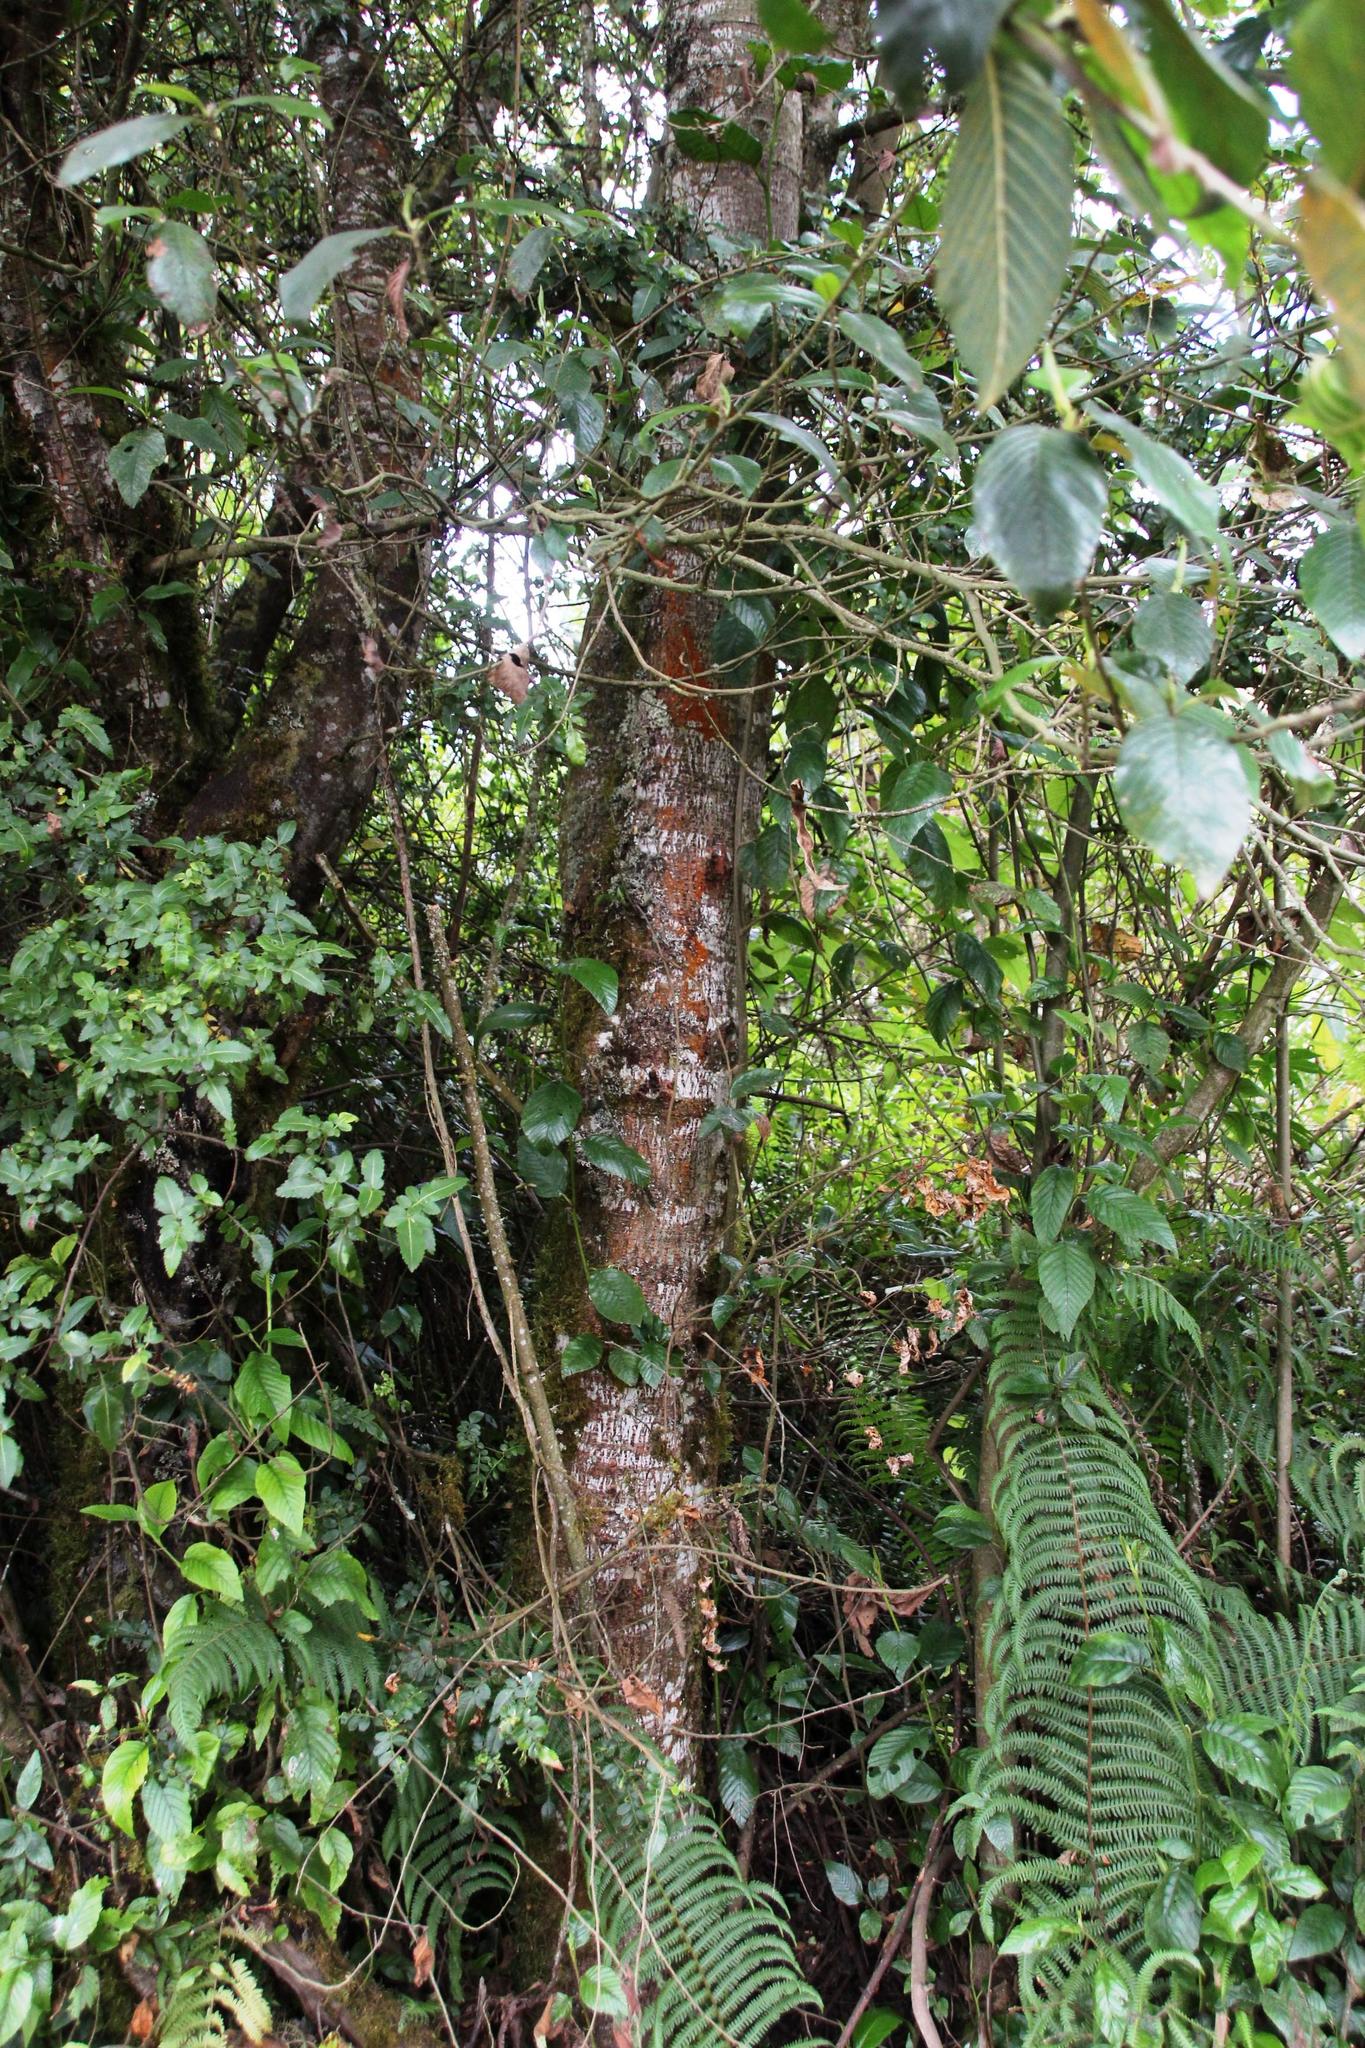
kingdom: Plantae
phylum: Tracheophyta
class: Magnoliopsida
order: Fagales
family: Betulaceae
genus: Alnus
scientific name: Alnus acuminata
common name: Alder
